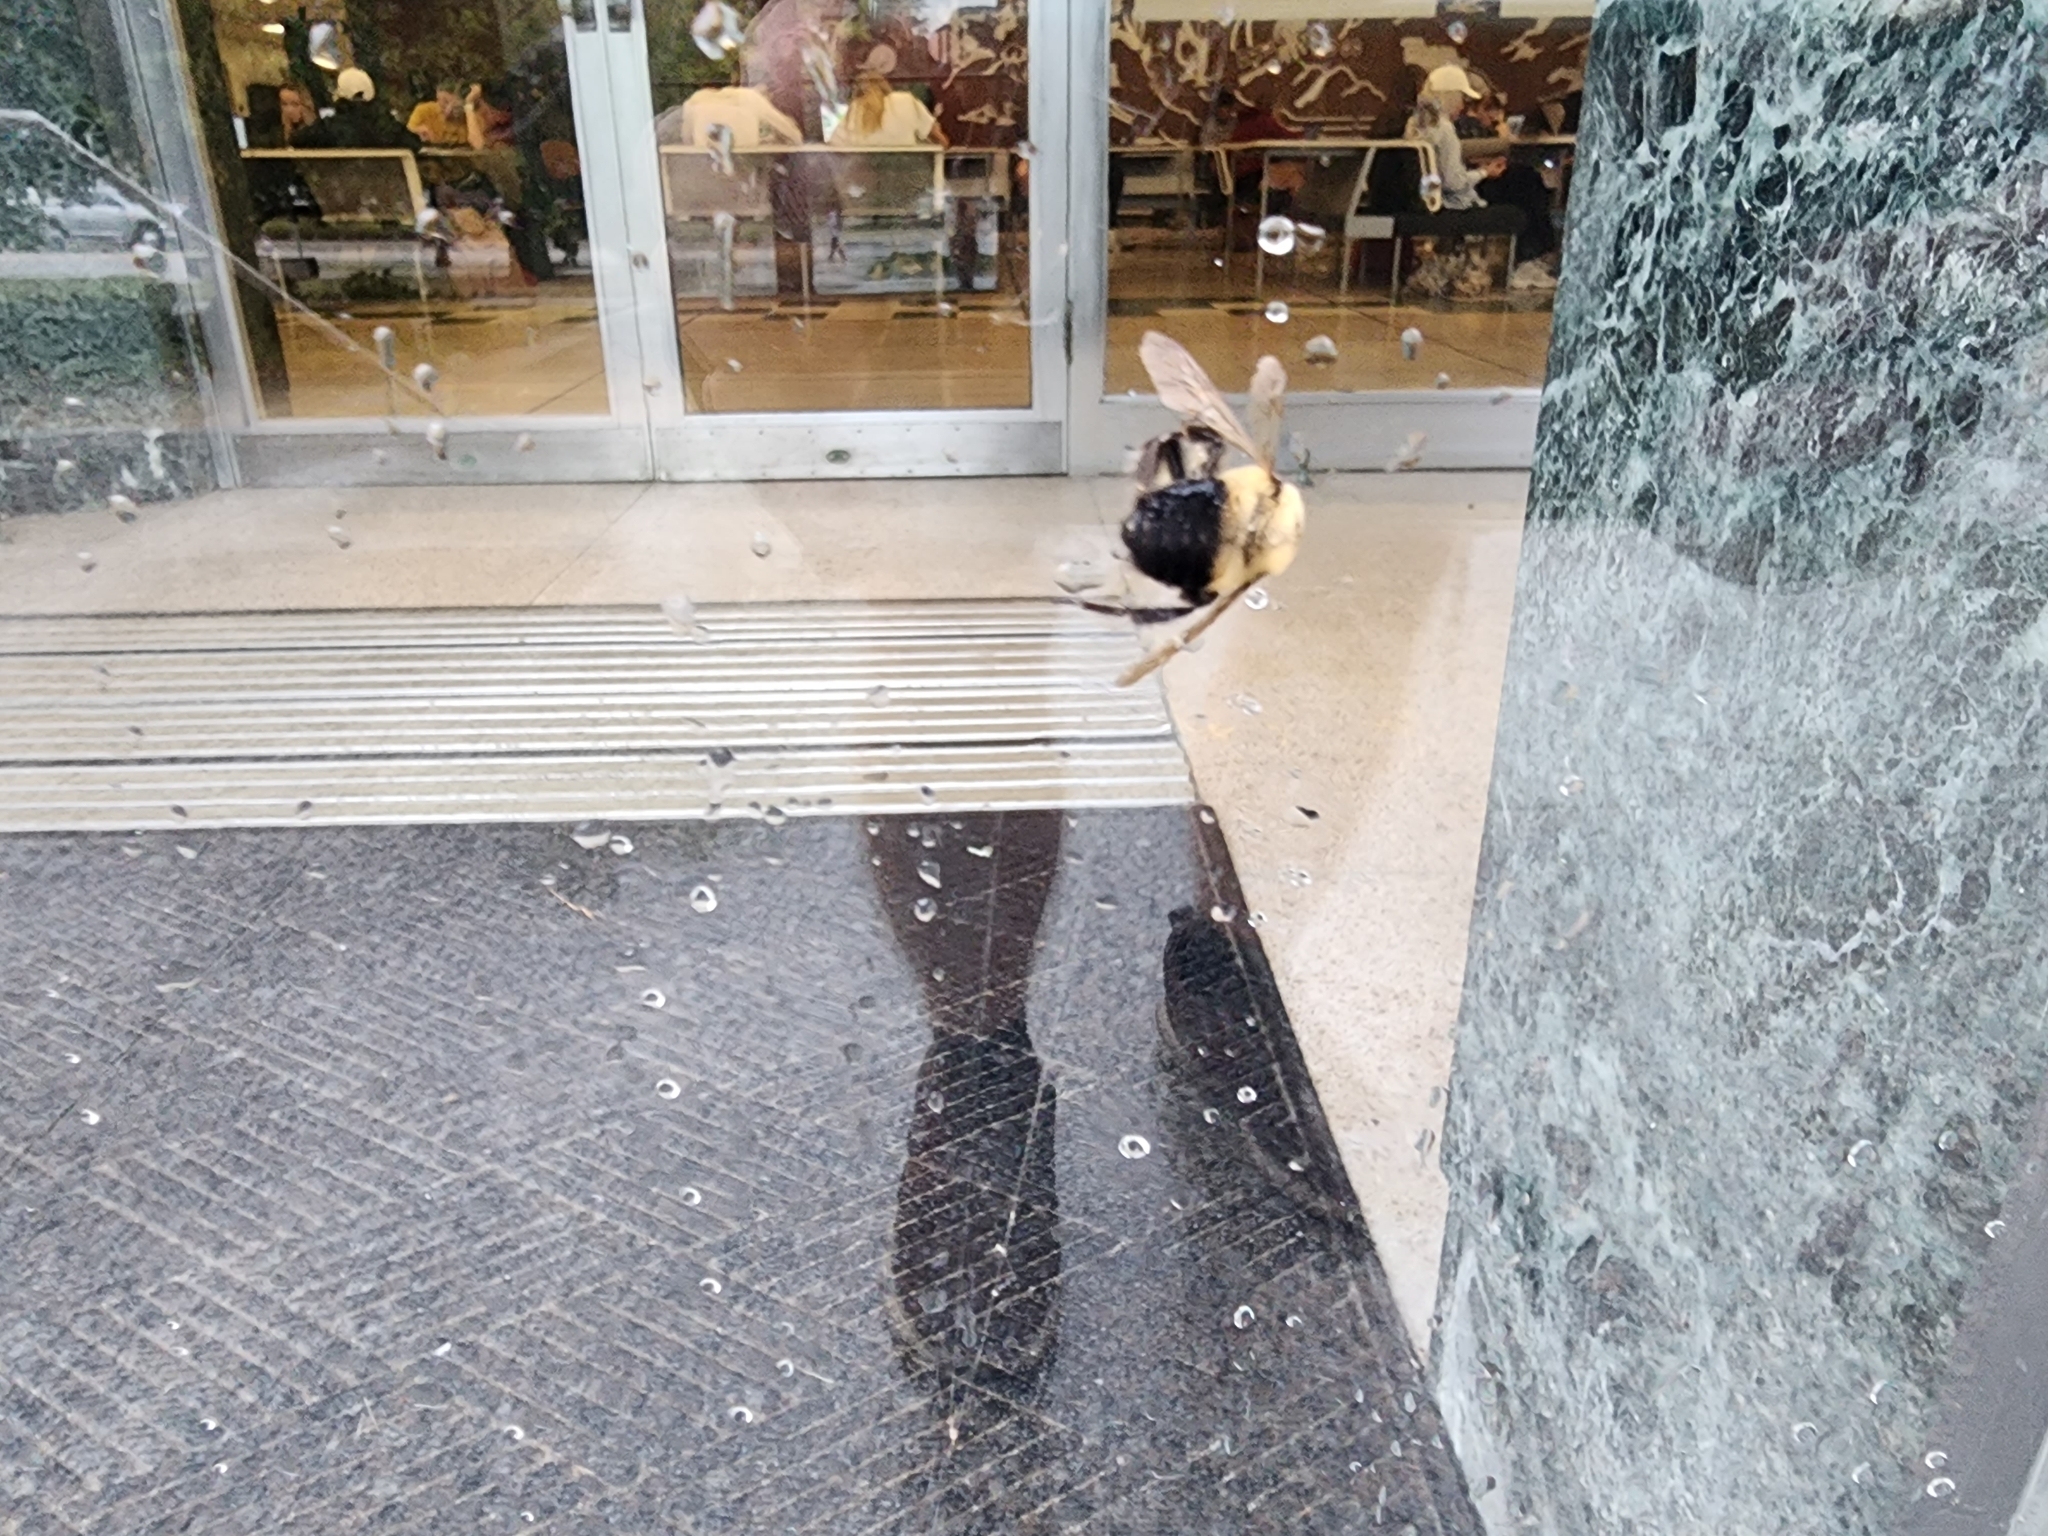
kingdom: Animalia
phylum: Arthropoda
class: Insecta
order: Hymenoptera
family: Apidae
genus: Bombus
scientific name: Bombus griseocollis
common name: Brown-belted bumble bee
